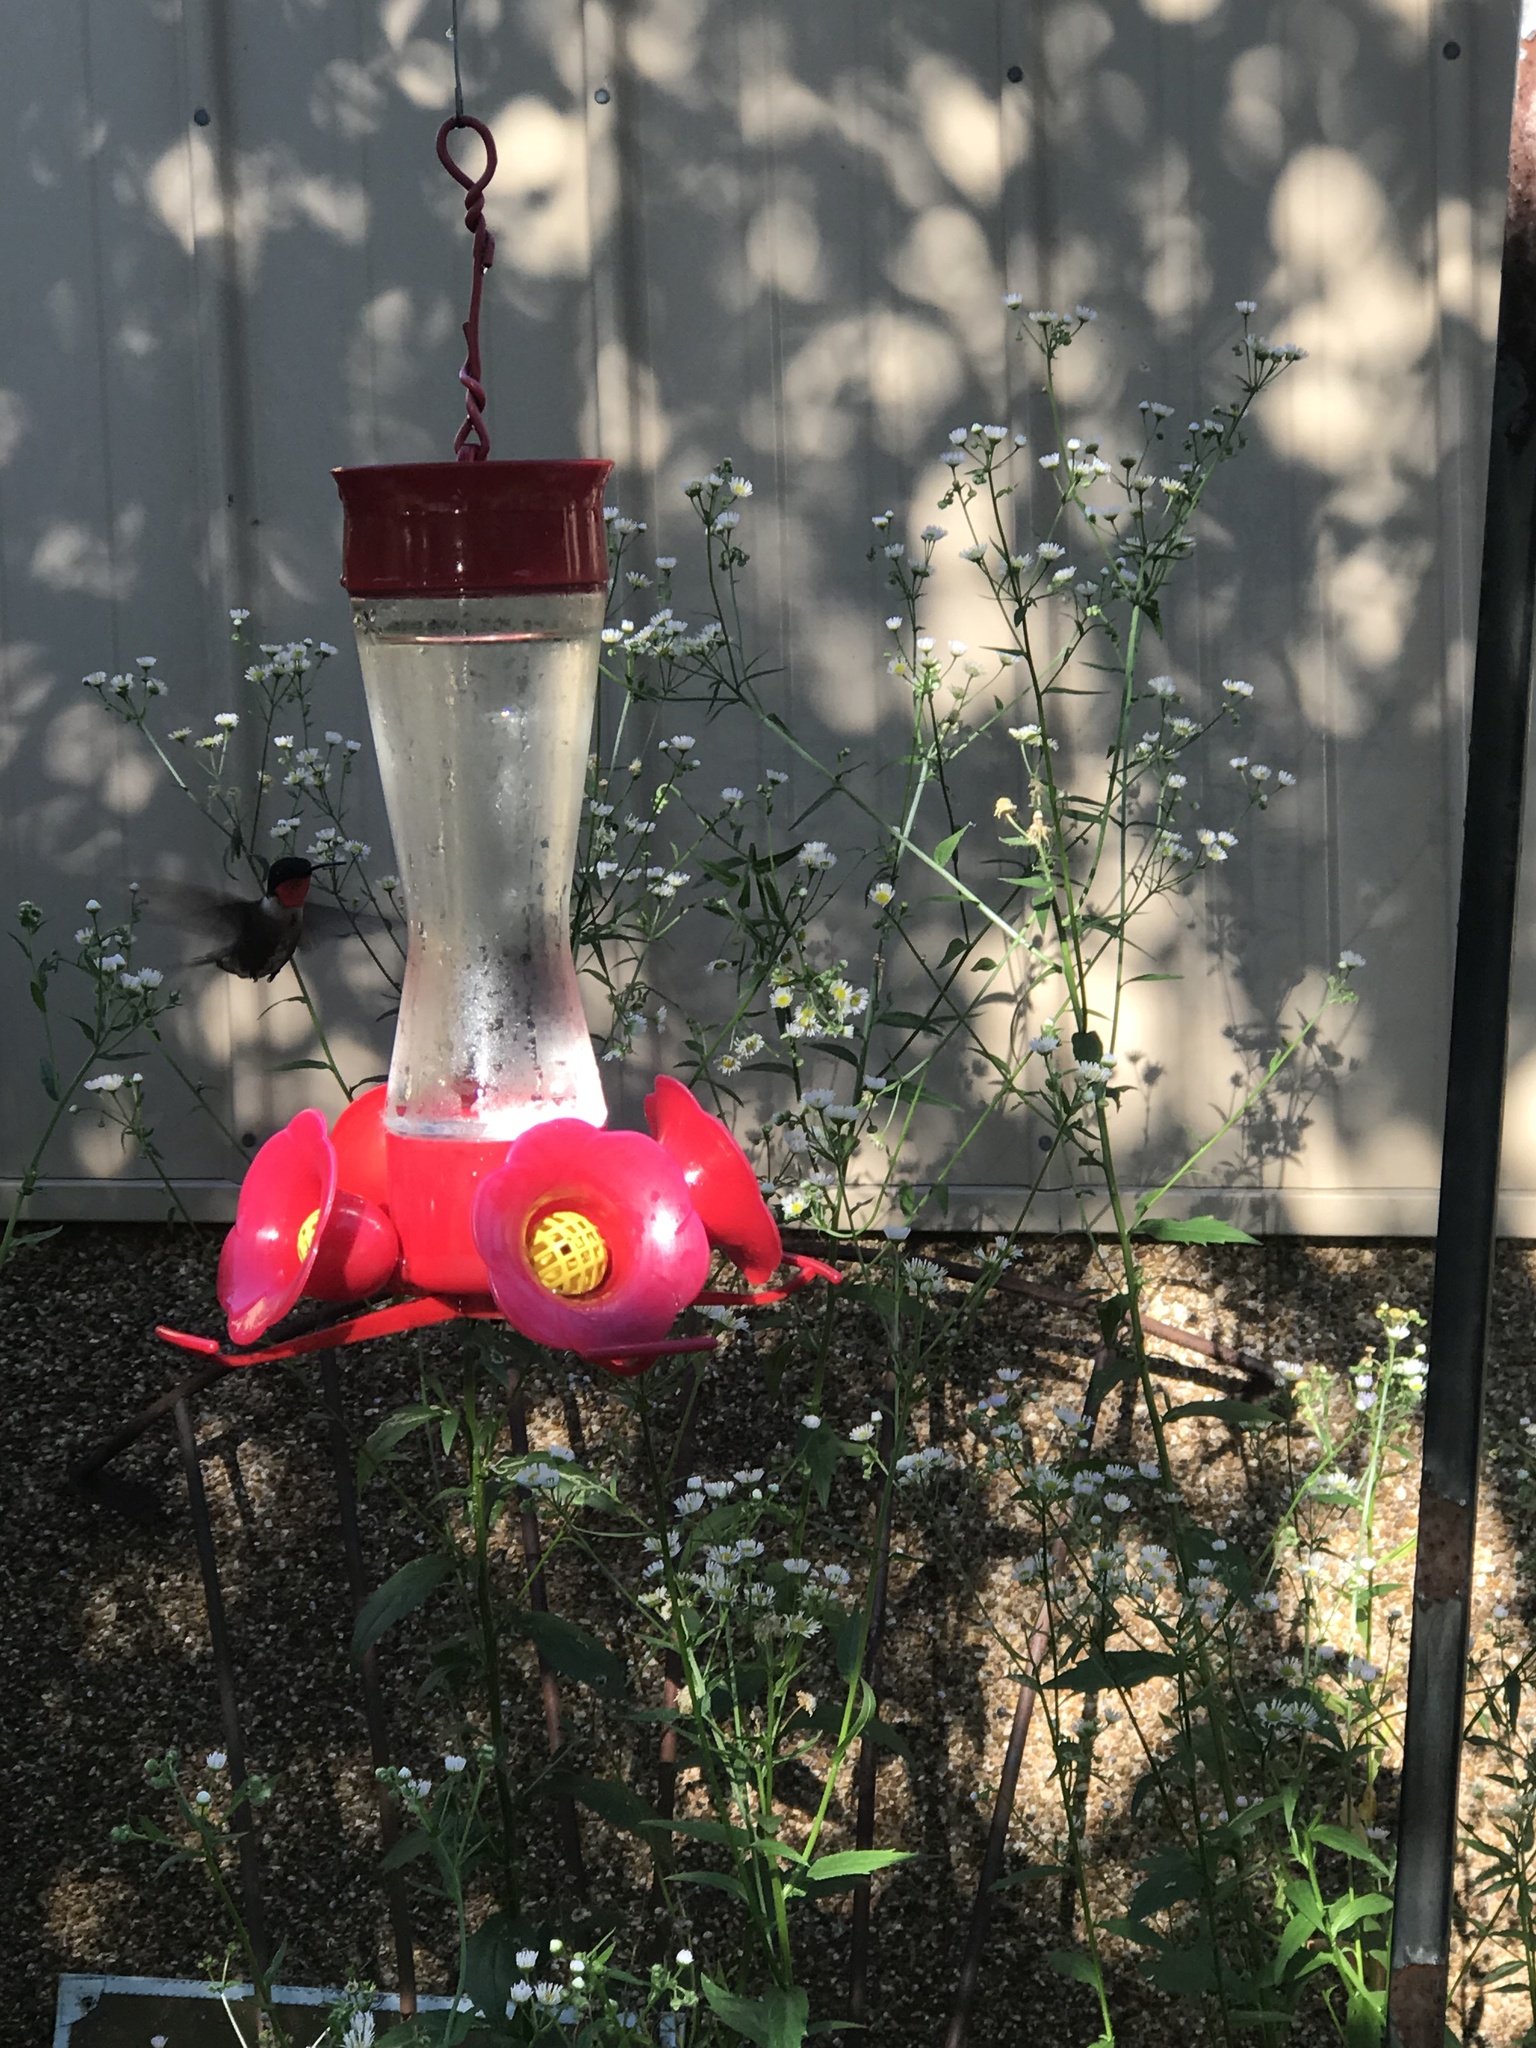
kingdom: Animalia
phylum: Chordata
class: Aves
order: Apodiformes
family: Trochilidae
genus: Archilochus
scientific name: Archilochus colubris
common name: Ruby-throated hummingbird
